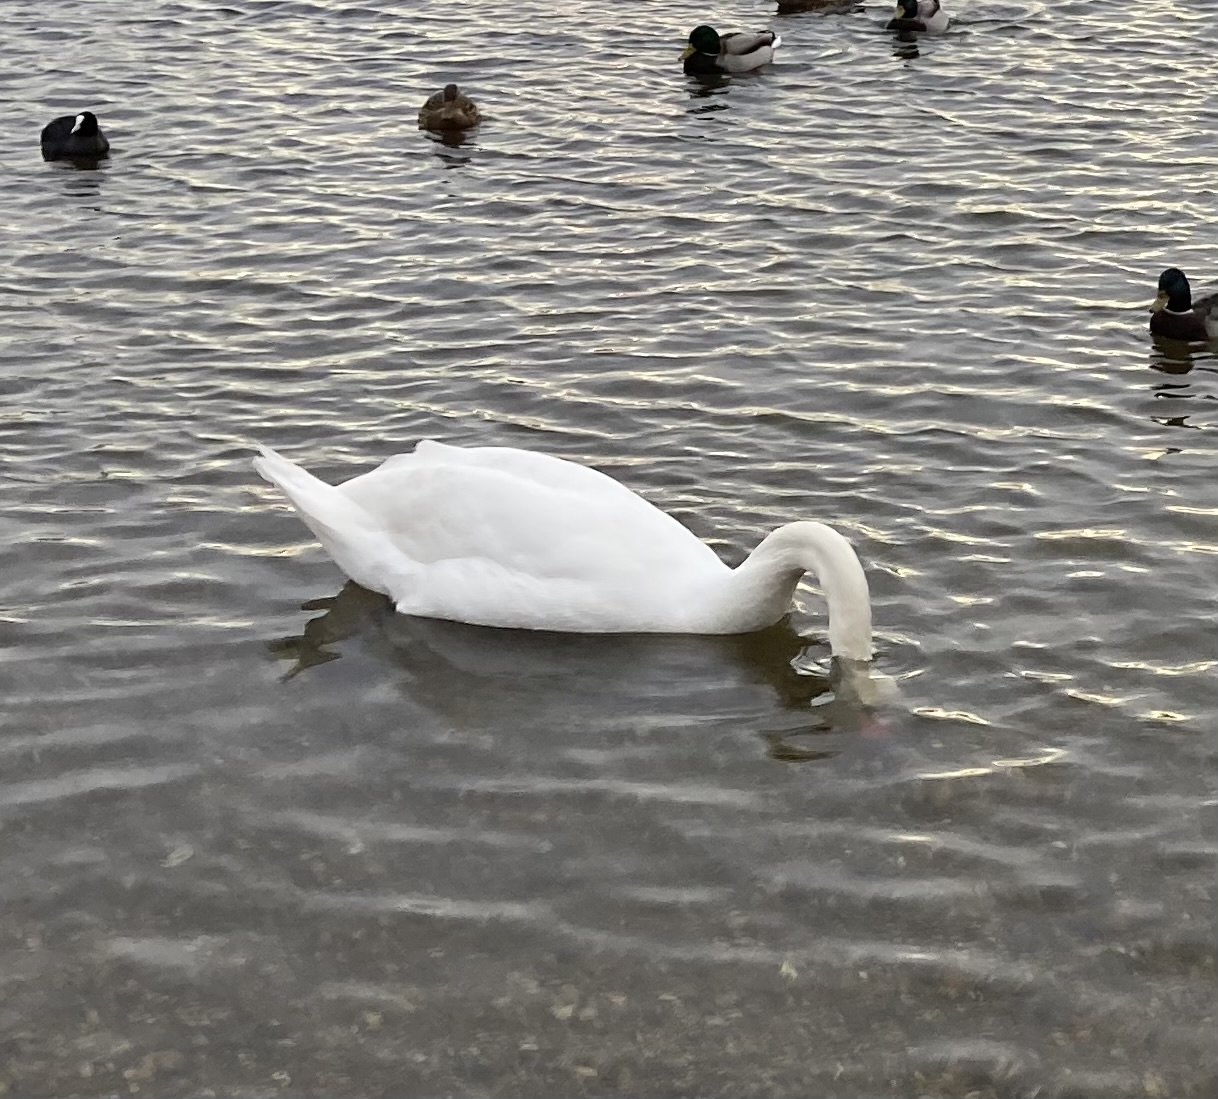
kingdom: Animalia
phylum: Chordata
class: Aves
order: Anseriformes
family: Anatidae
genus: Cygnus
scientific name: Cygnus olor
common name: Mute swan
